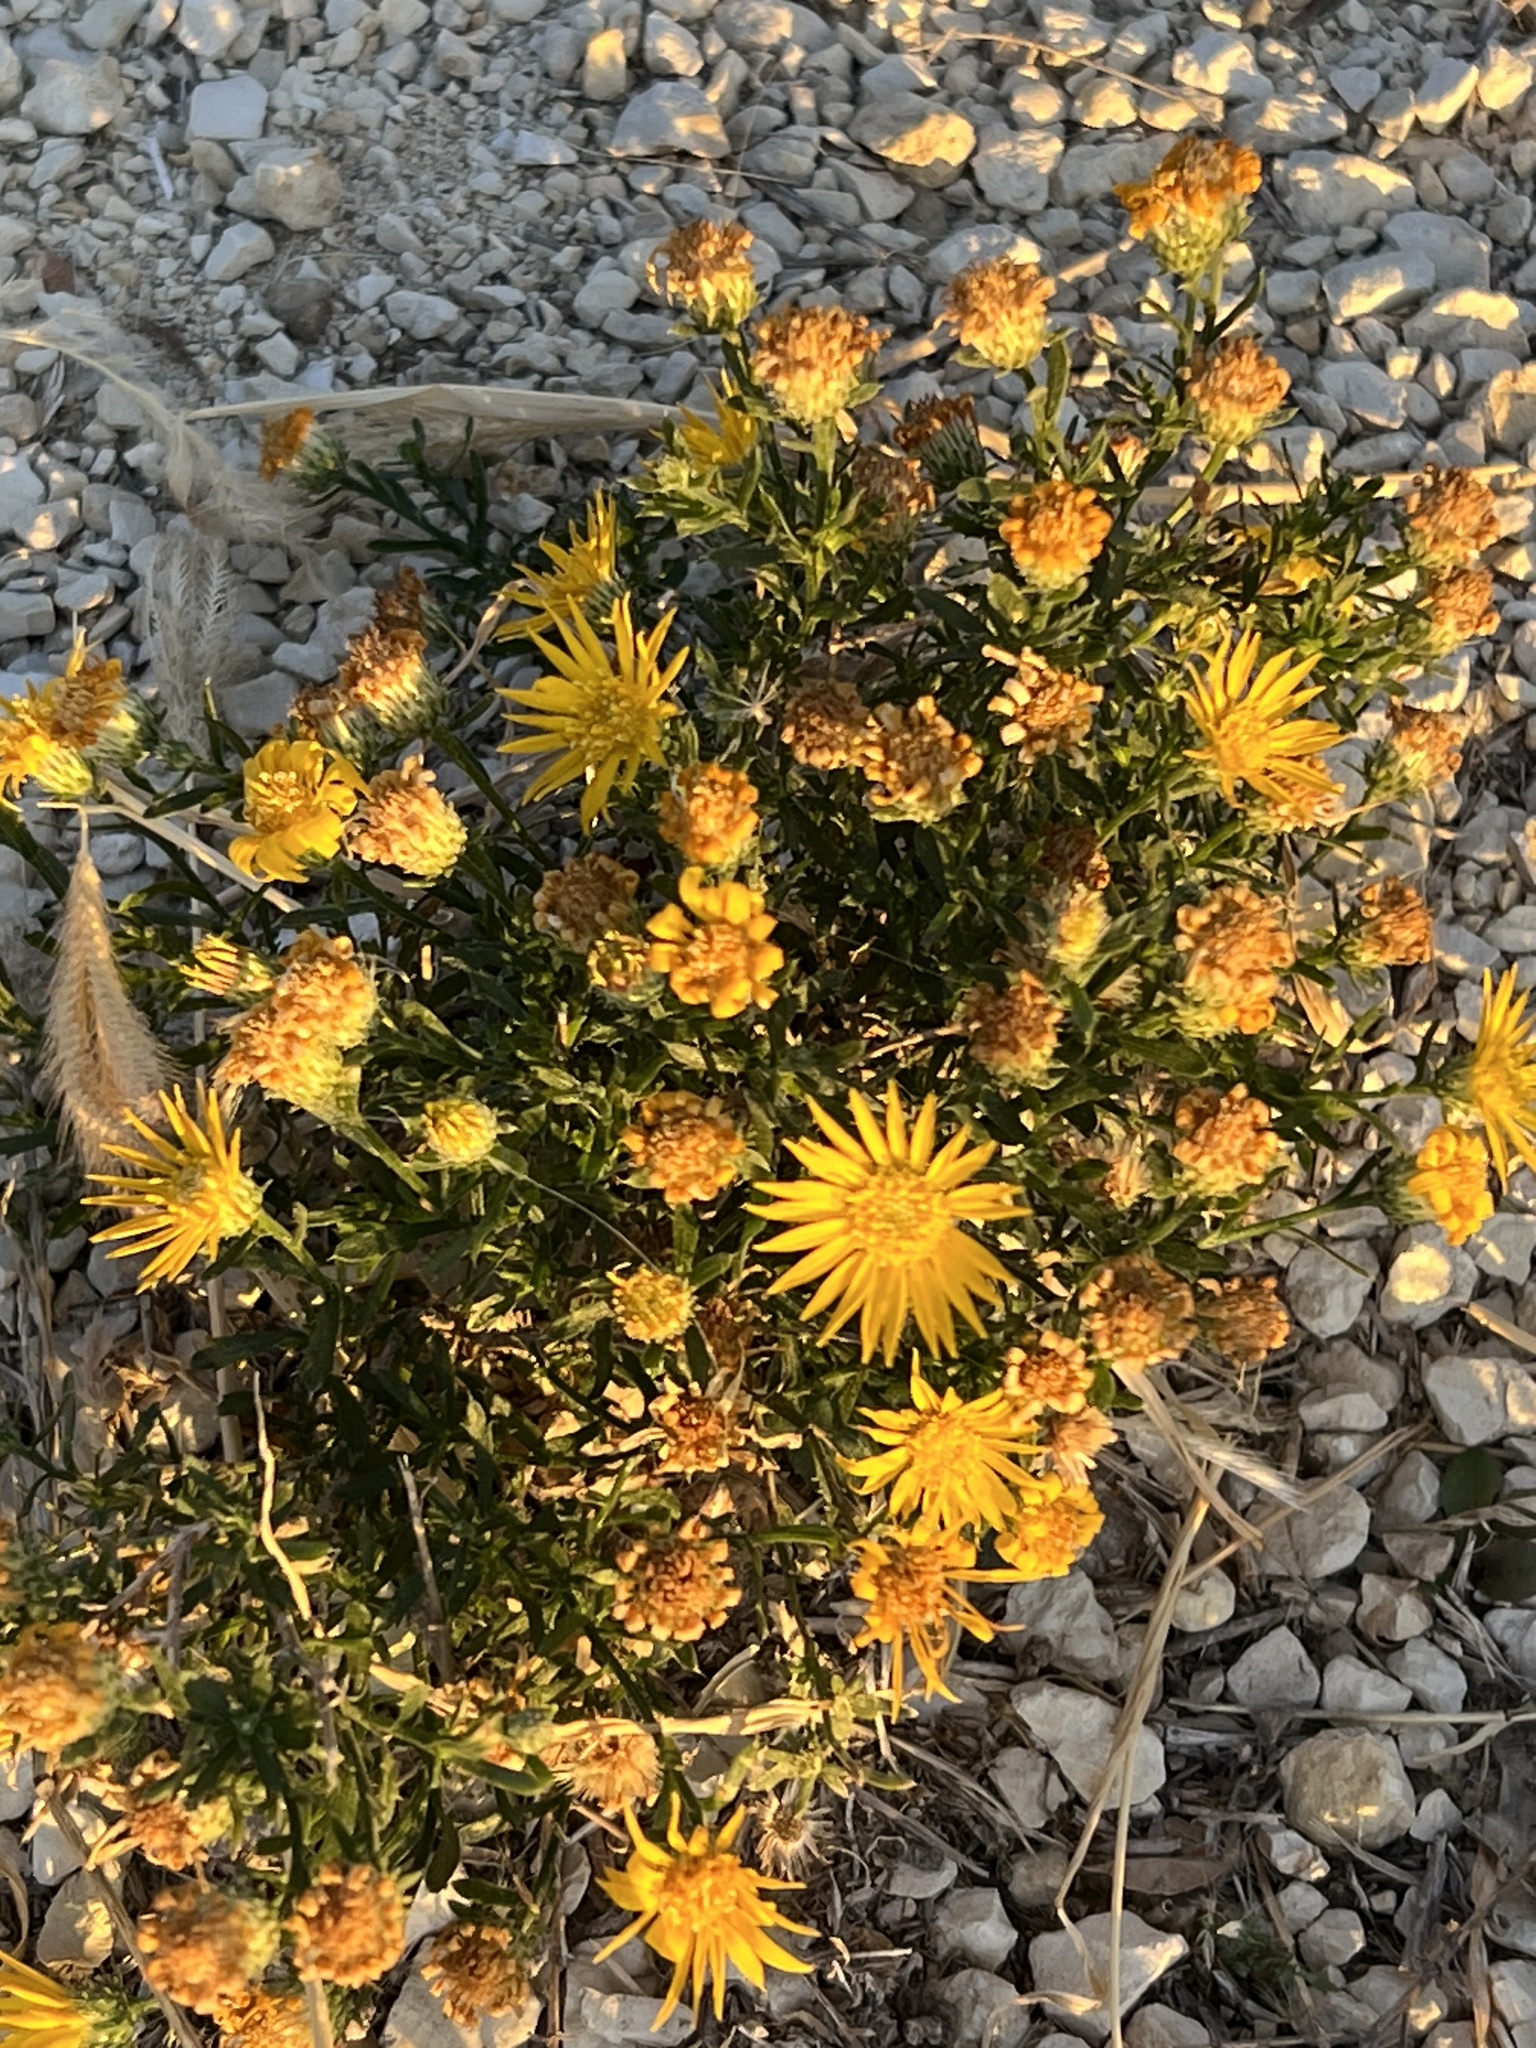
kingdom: Plantae
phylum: Tracheophyta
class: Magnoliopsida
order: Asterales
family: Asteraceae
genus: Xanthisma
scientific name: Xanthisma spinulosum
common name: Spiny goldenweed
